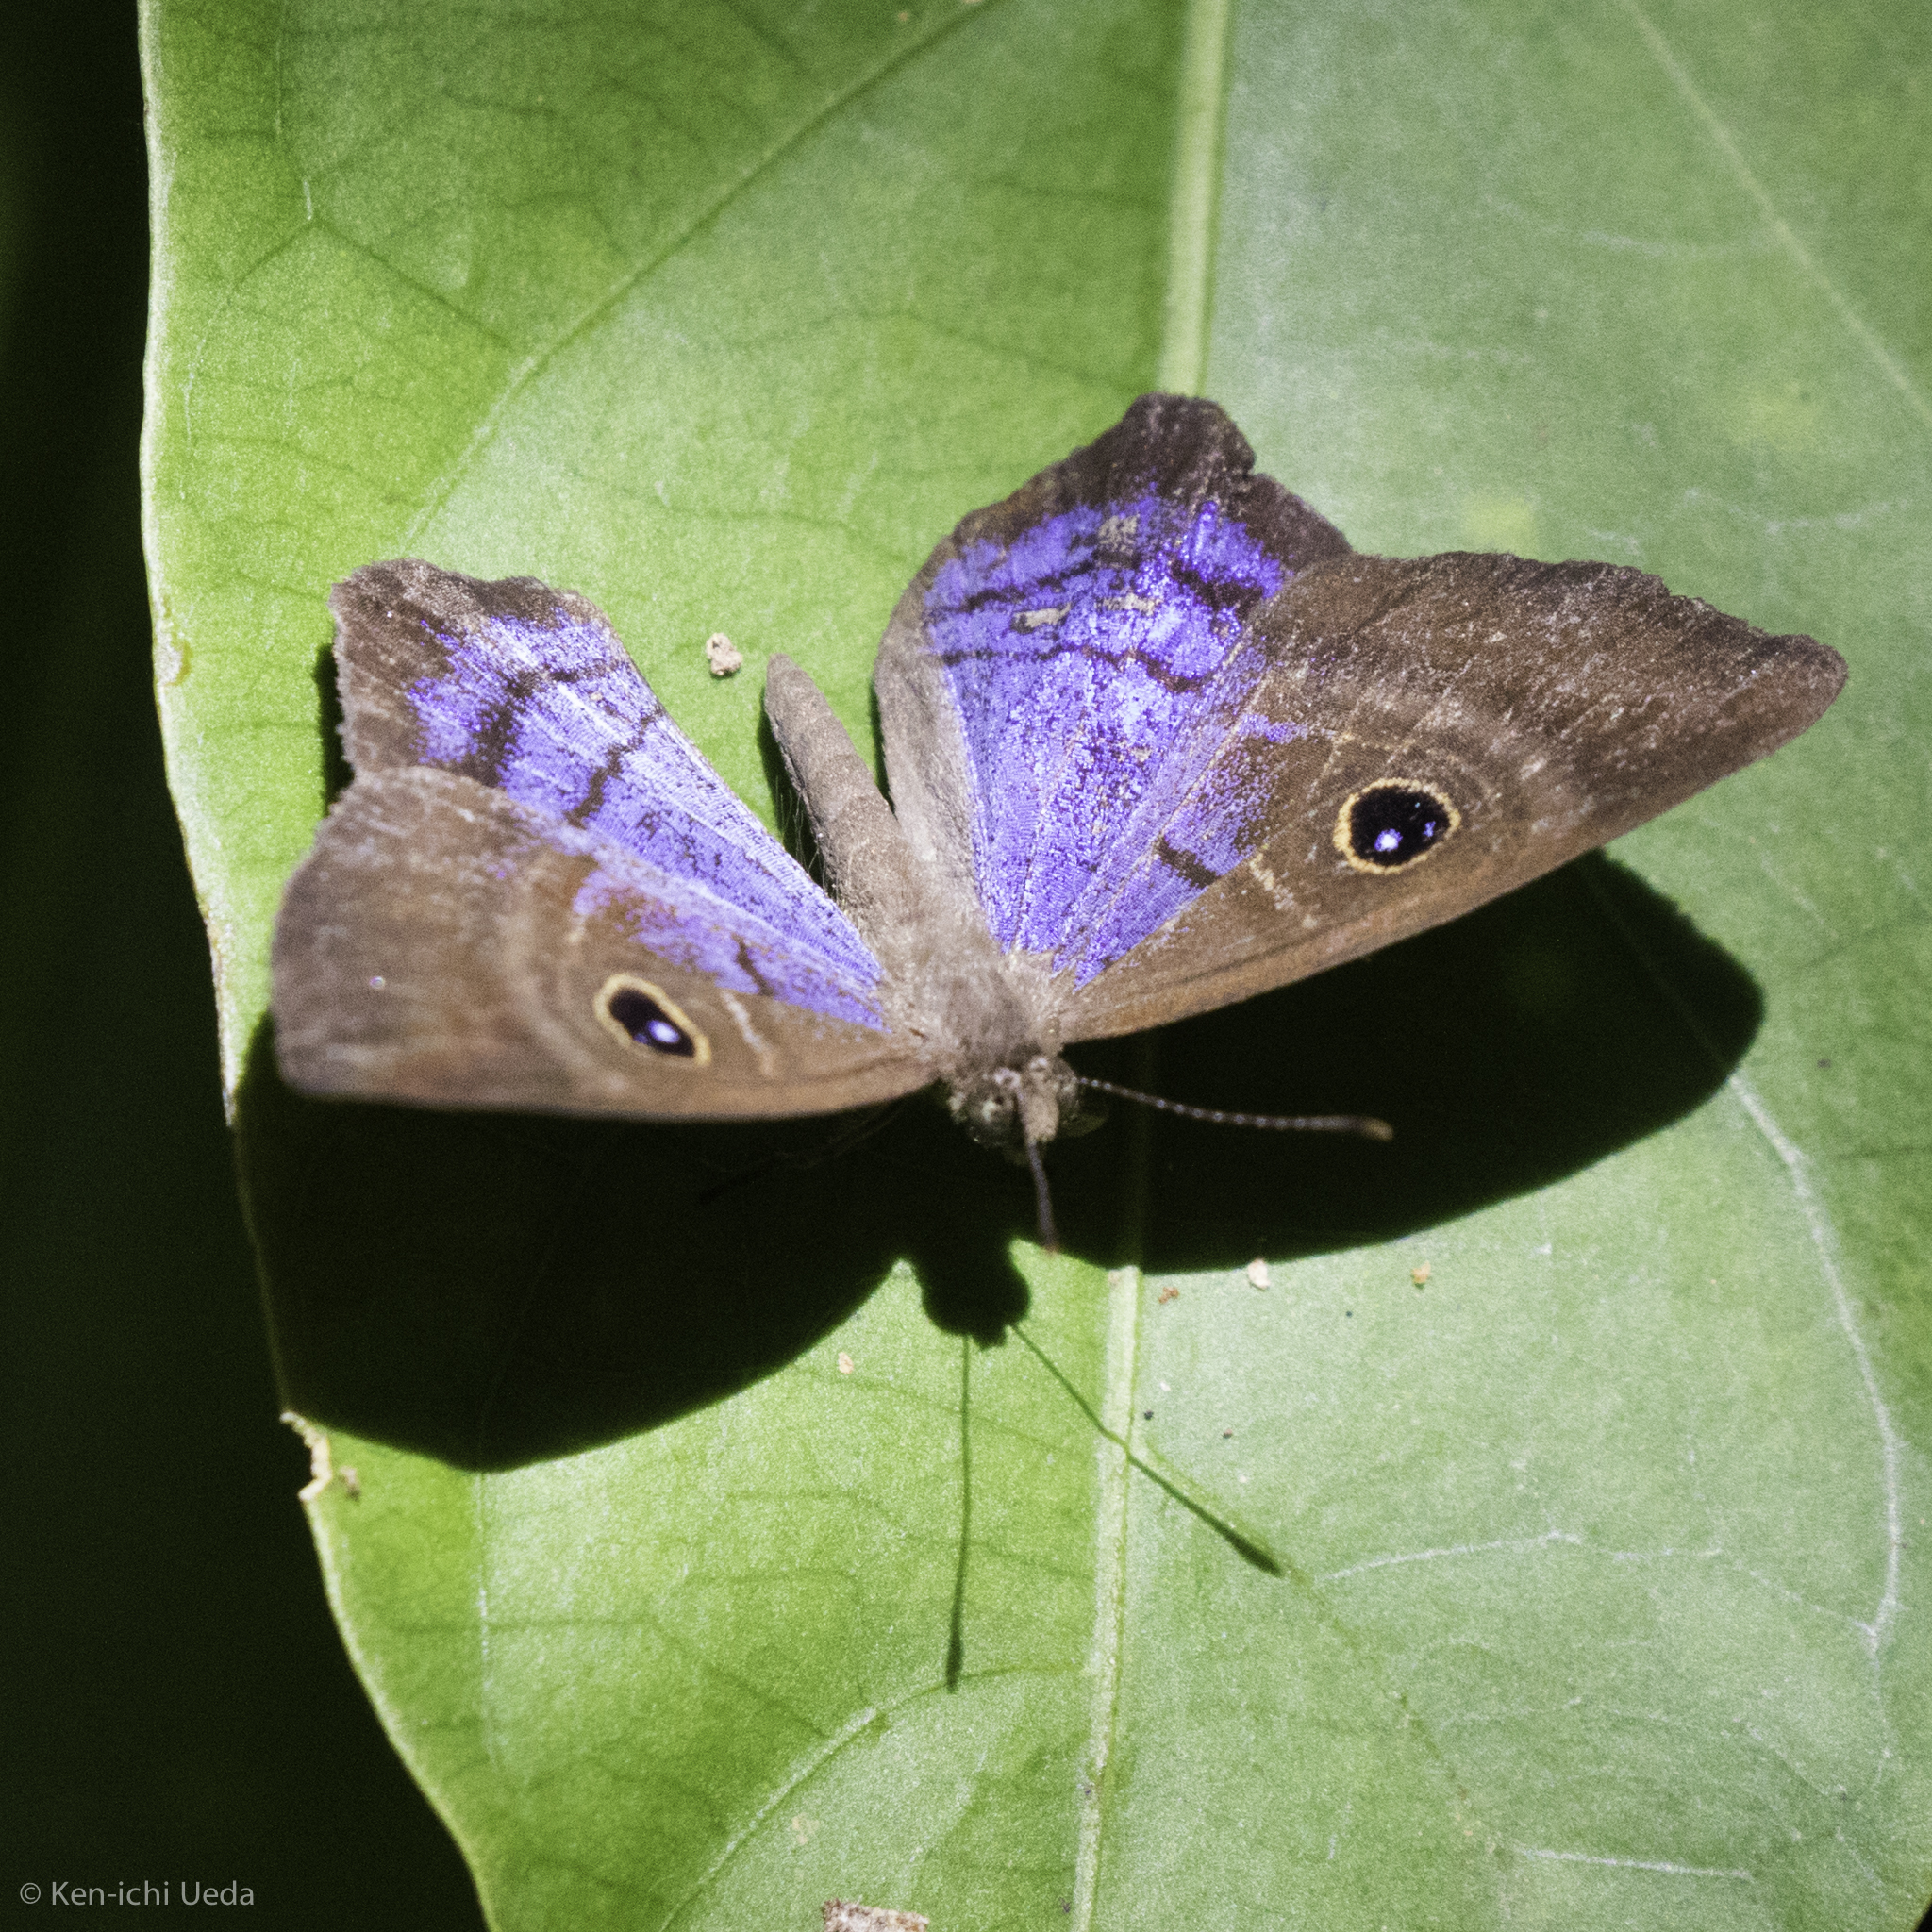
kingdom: Animalia
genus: Mesosemia
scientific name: Mesosemia lamachus
